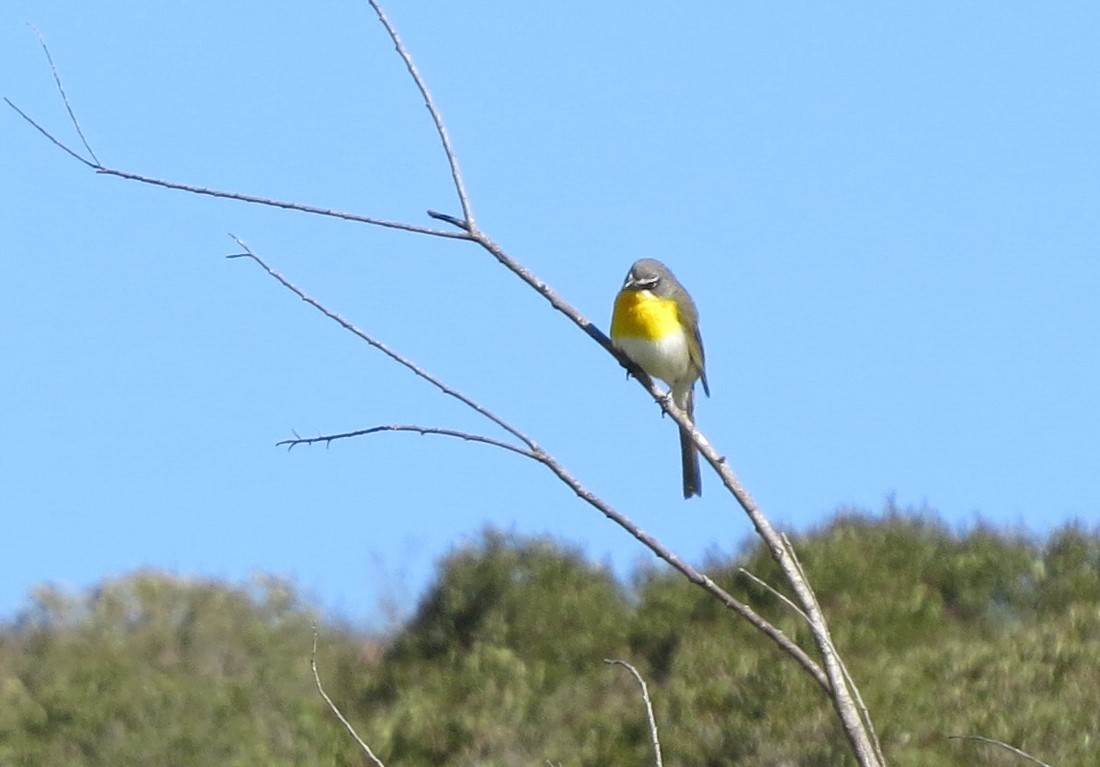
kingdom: Animalia
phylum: Chordata
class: Aves
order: Passeriformes
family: Parulidae
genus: Icteria
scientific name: Icteria virens
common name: Yellow-breasted chat
